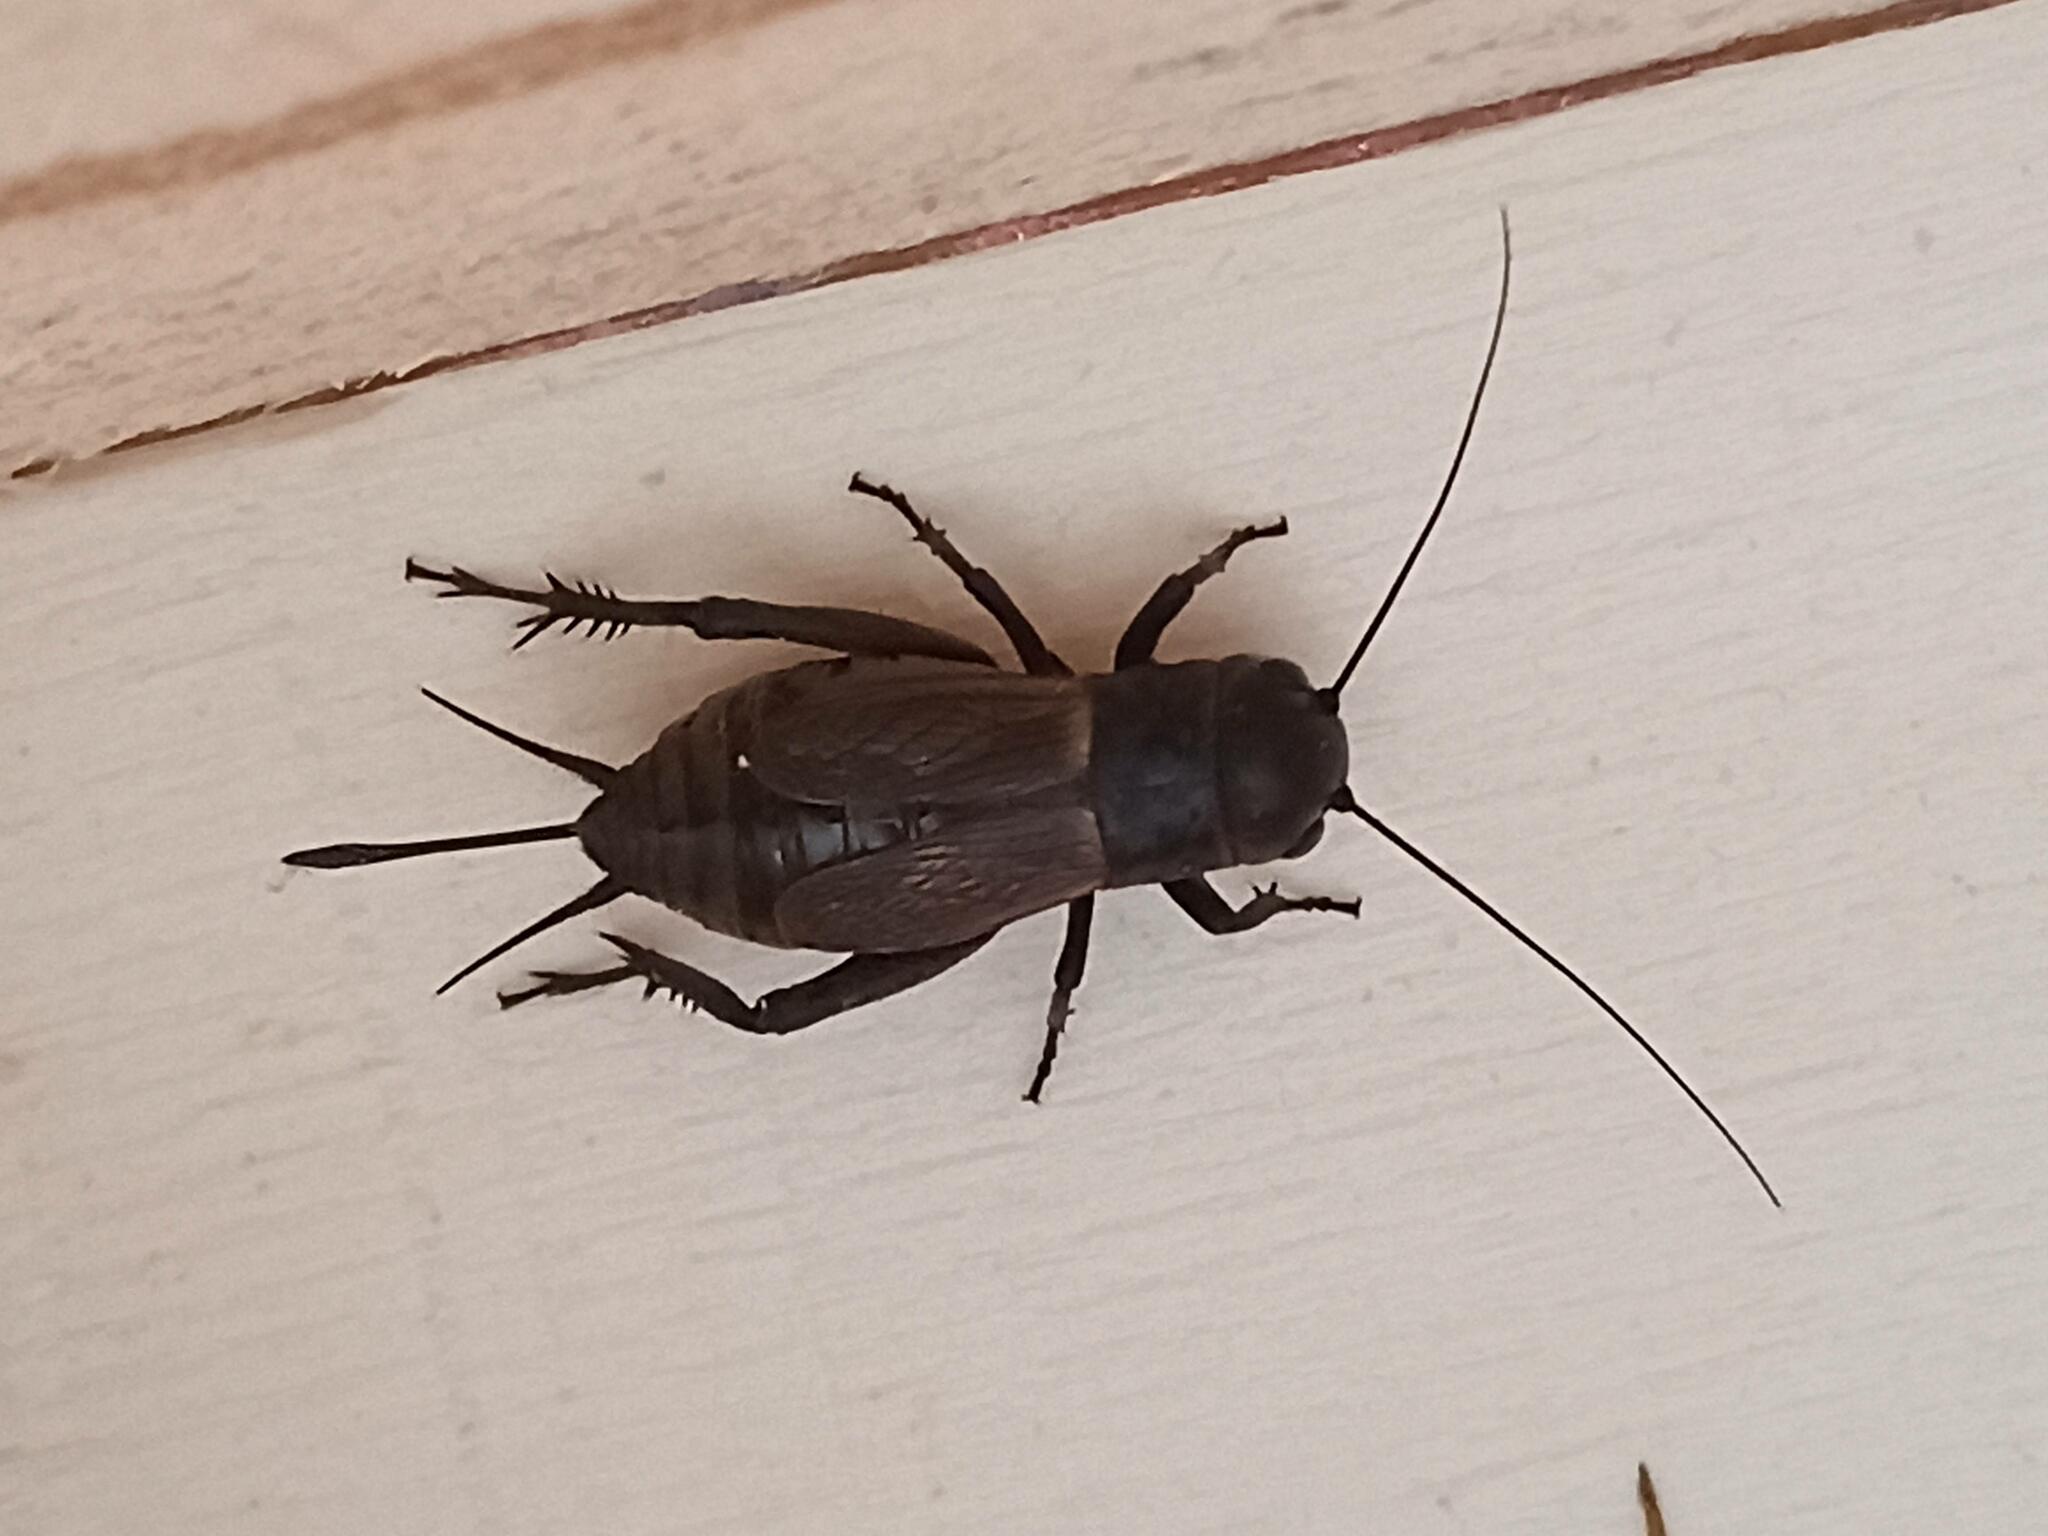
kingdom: Animalia
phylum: Arthropoda
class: Insecta
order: Orthoptera
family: Gryllidae
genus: Gryllus
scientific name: Gryllus campestris
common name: Field cricket
